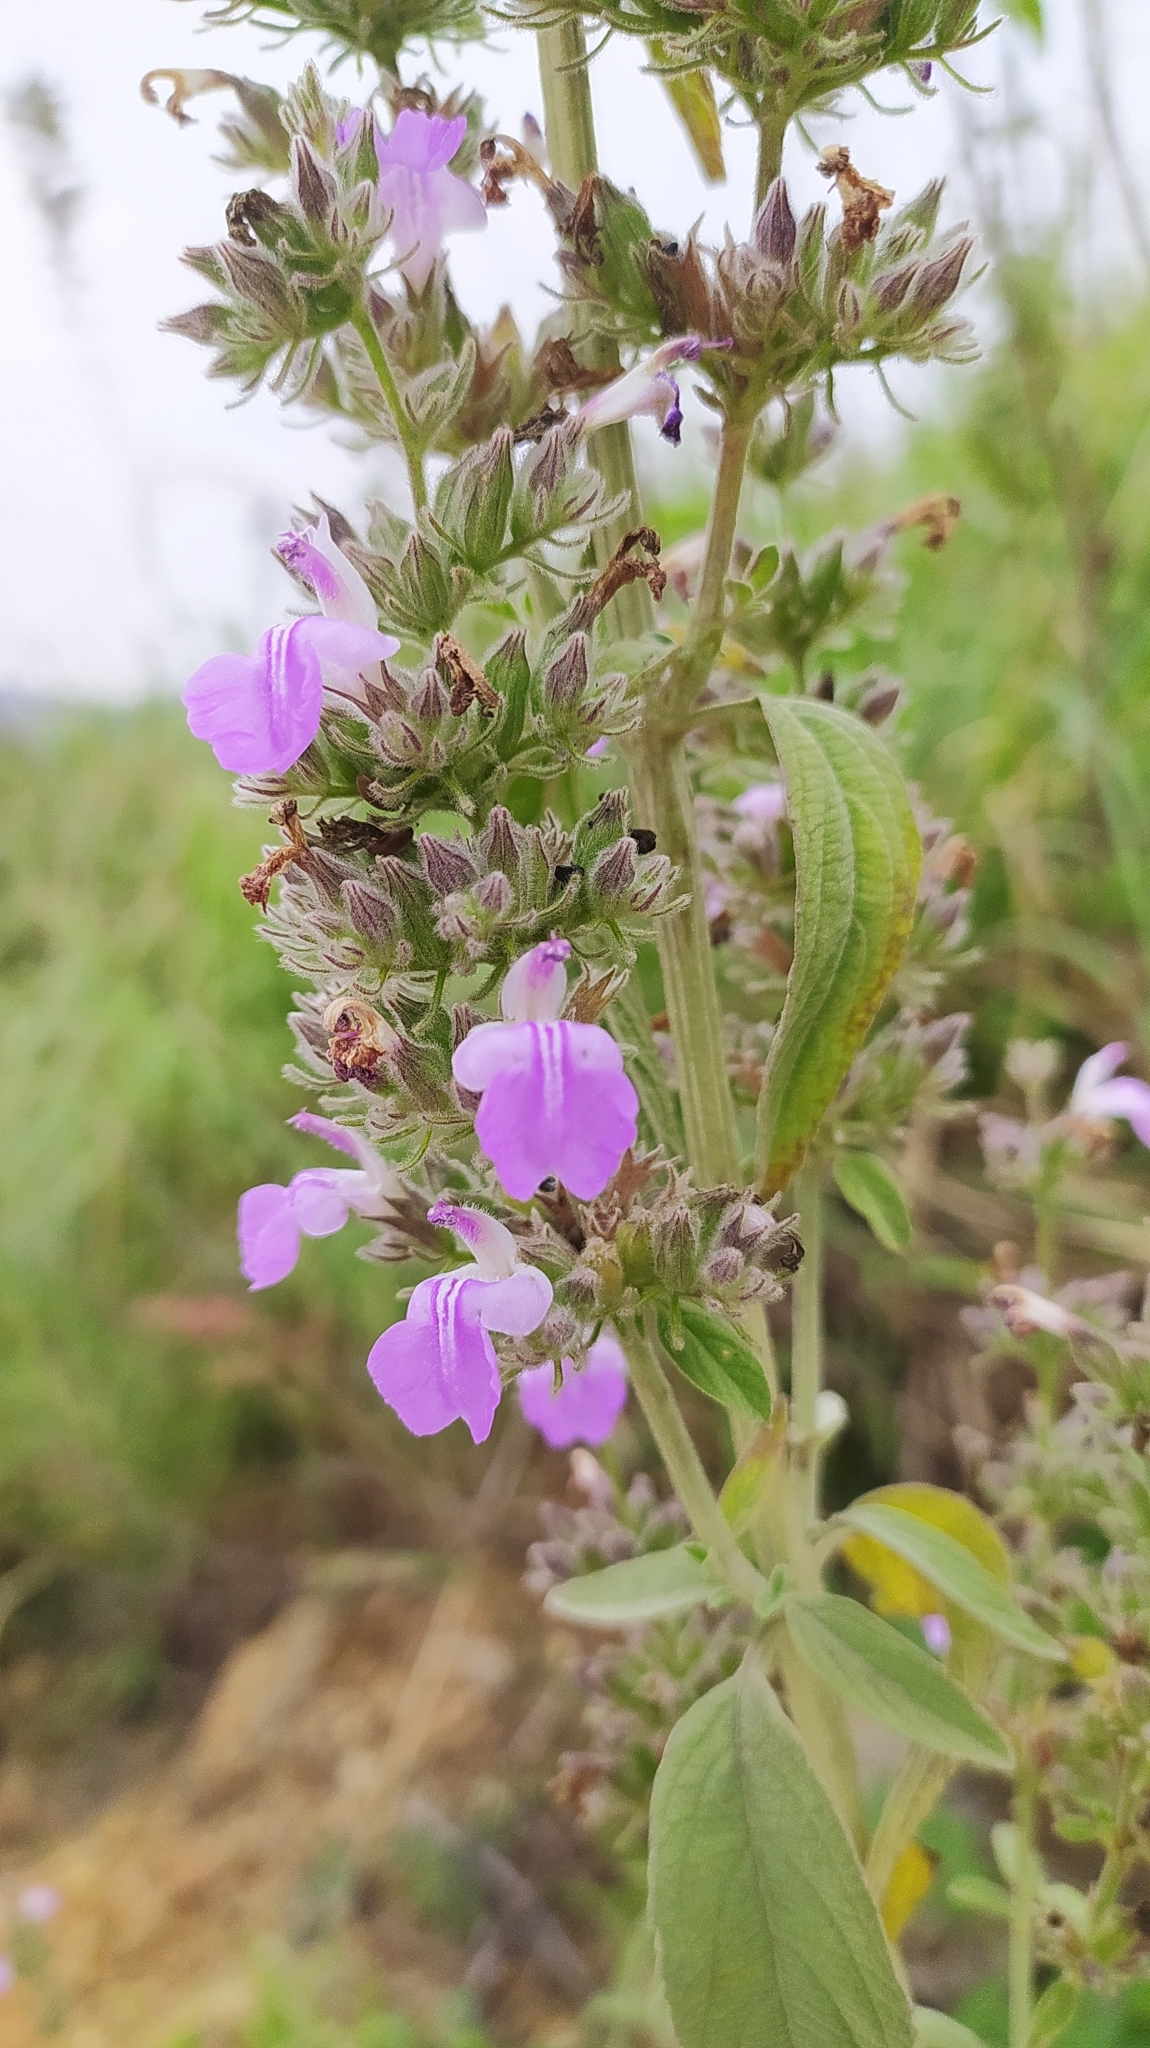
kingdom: Plantae
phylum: Tracheophyta
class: Magnoliopsida
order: Lamiales
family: Lamiaceae
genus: Anisomeles
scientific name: Anisomeles malabarica
